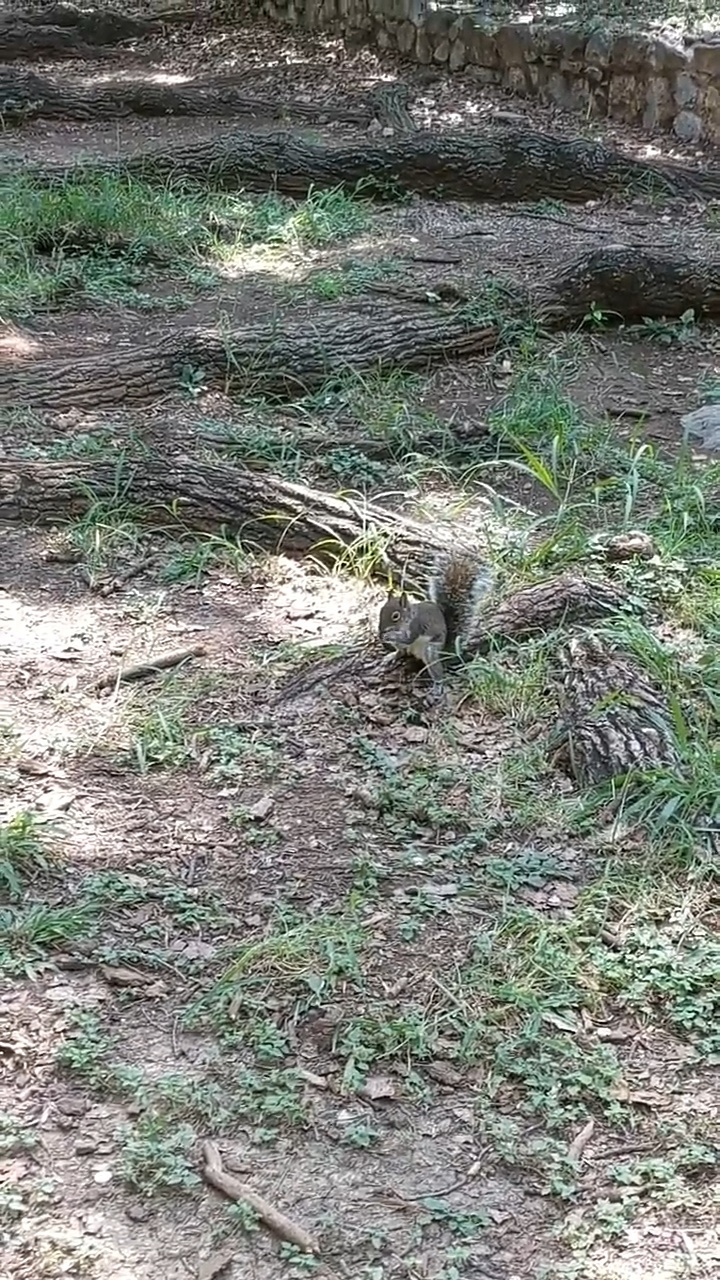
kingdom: Animalia
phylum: Chordata
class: Mammalia
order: Rodentia
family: Sciuridae
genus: Sciurus
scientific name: Sciurus alleni
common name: Allen's squirrel
